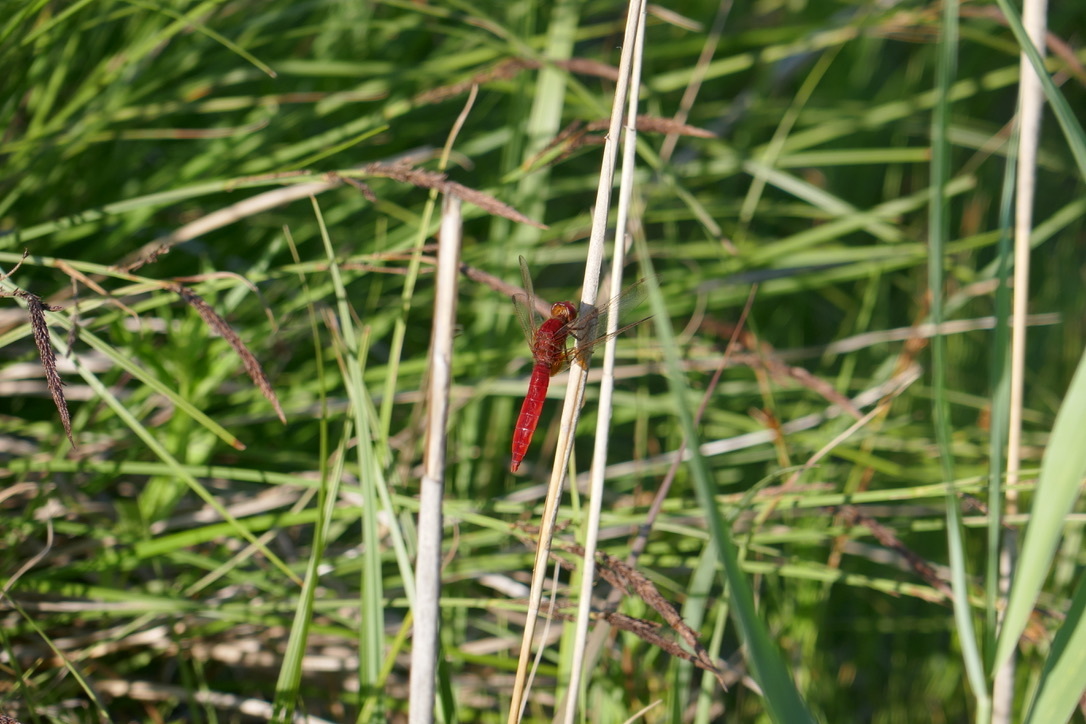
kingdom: Animalia
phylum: Arthropoda
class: Insecta
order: Odonata
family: Libellulidae
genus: Crocothemis
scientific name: Crocothemis erythraea
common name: Scarlet dragonfly
